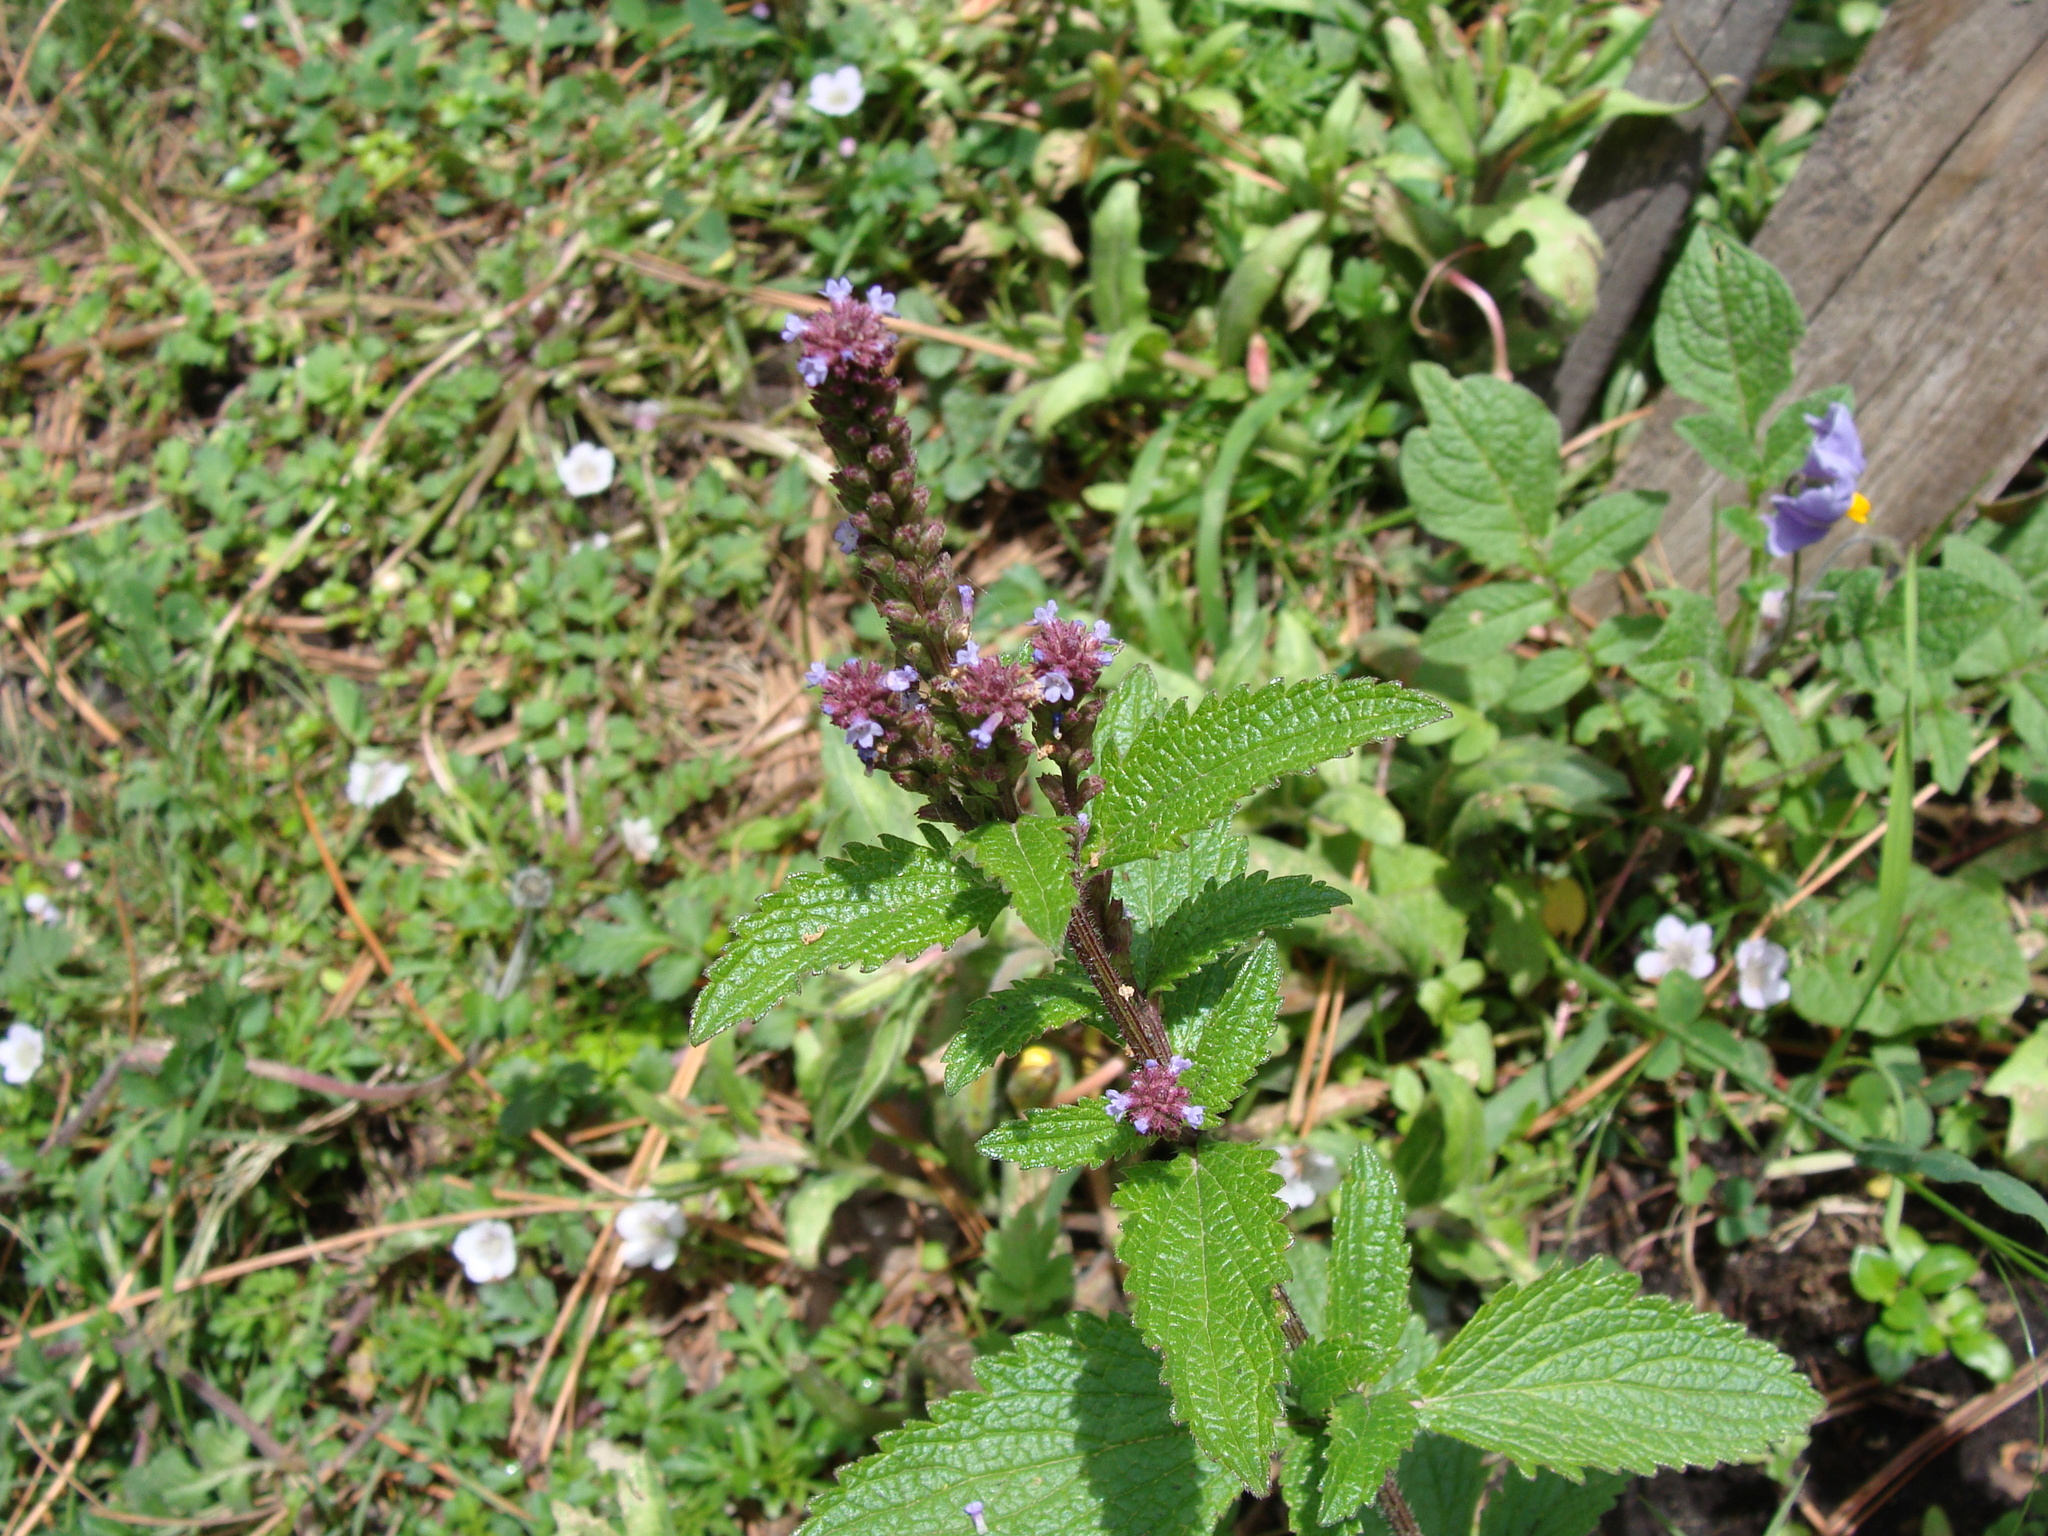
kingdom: Plantae
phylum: Tracheophyta
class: Magnoliopsida
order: Lamiales
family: Verbenaceae
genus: Verbena
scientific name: Verbena recta
